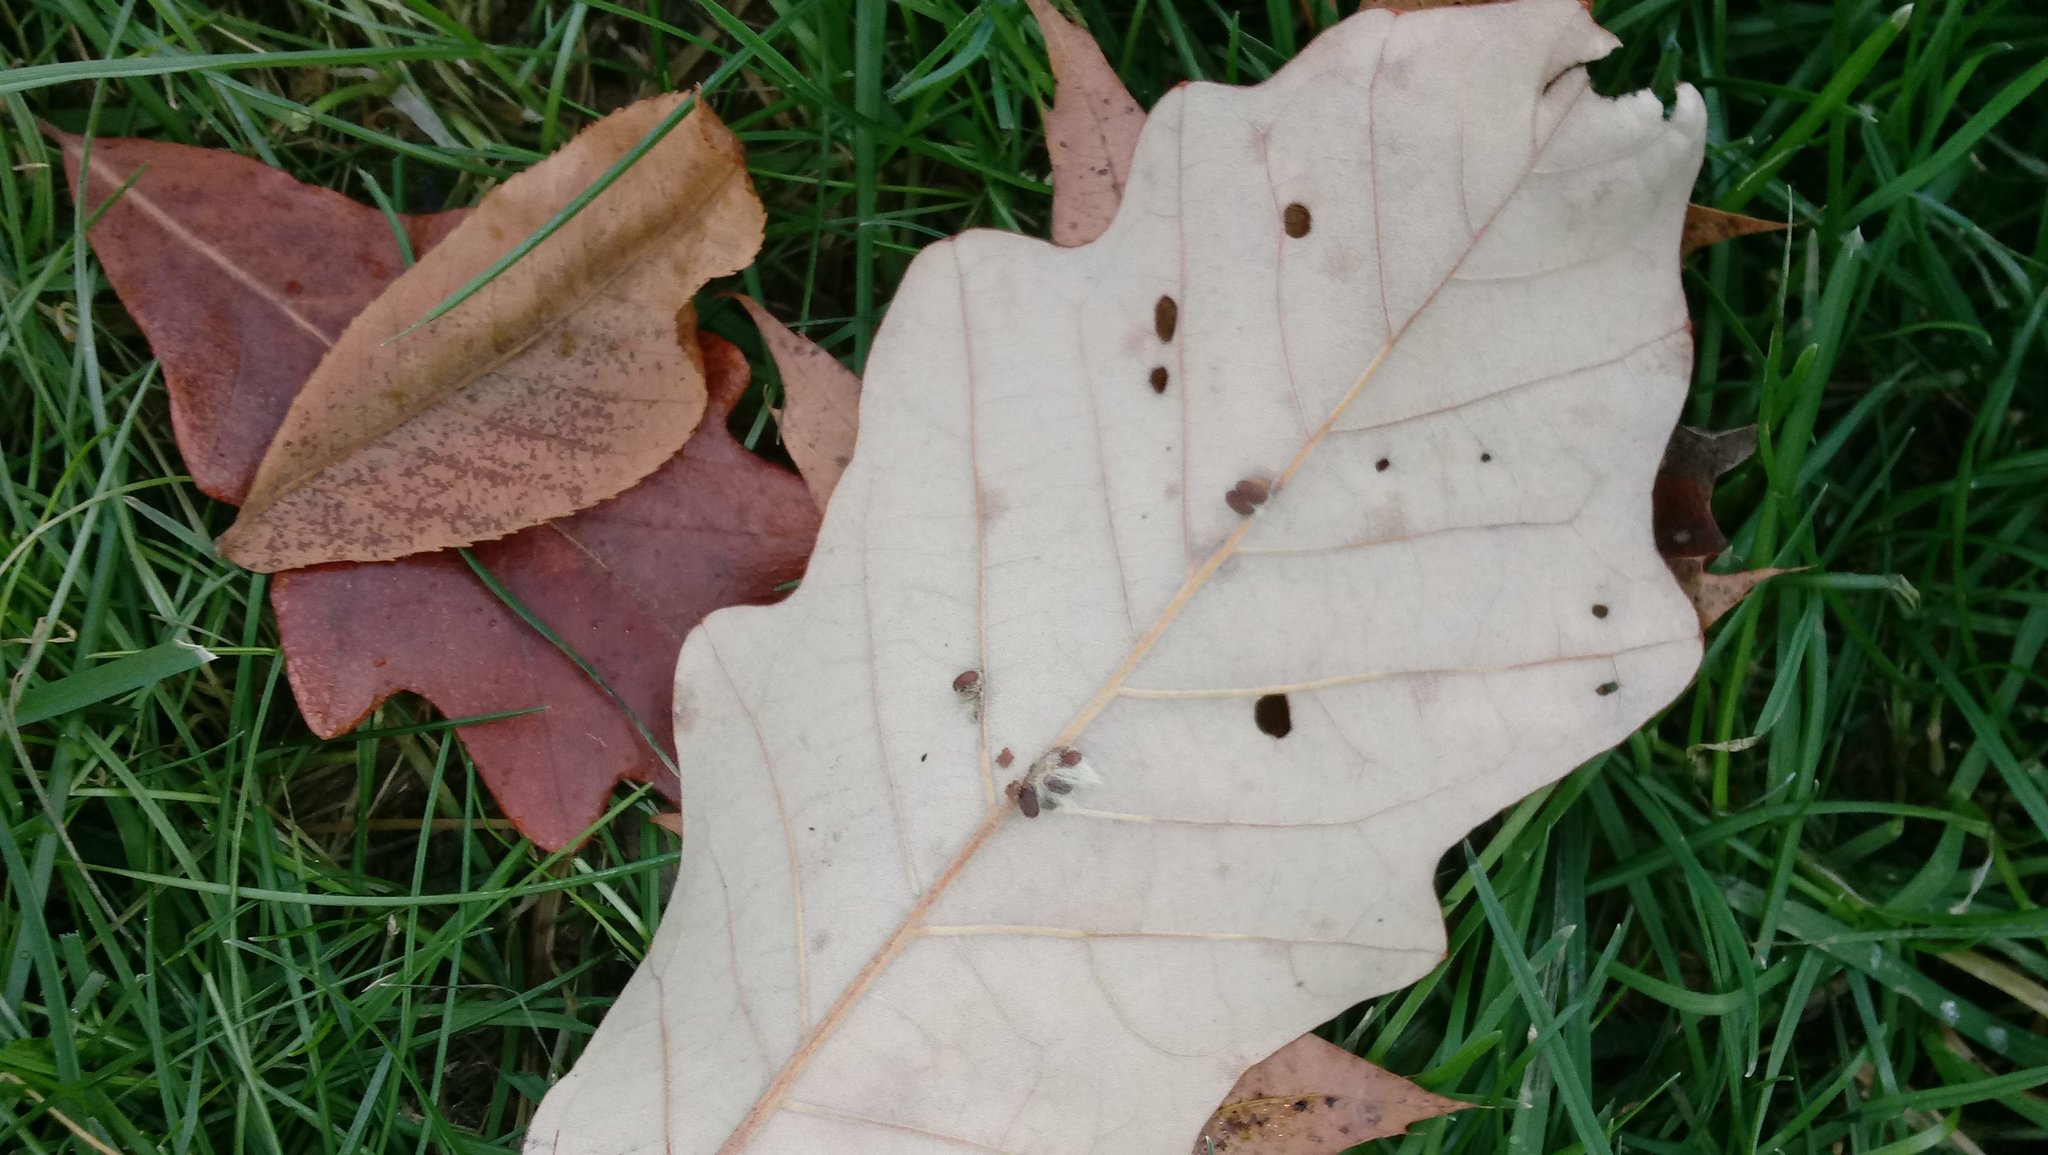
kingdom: Animalia
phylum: Arthropoda
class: Insecta
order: Hymenoptera
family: Cynipidae
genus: Andricus
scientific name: Andricus Druon ignotum
